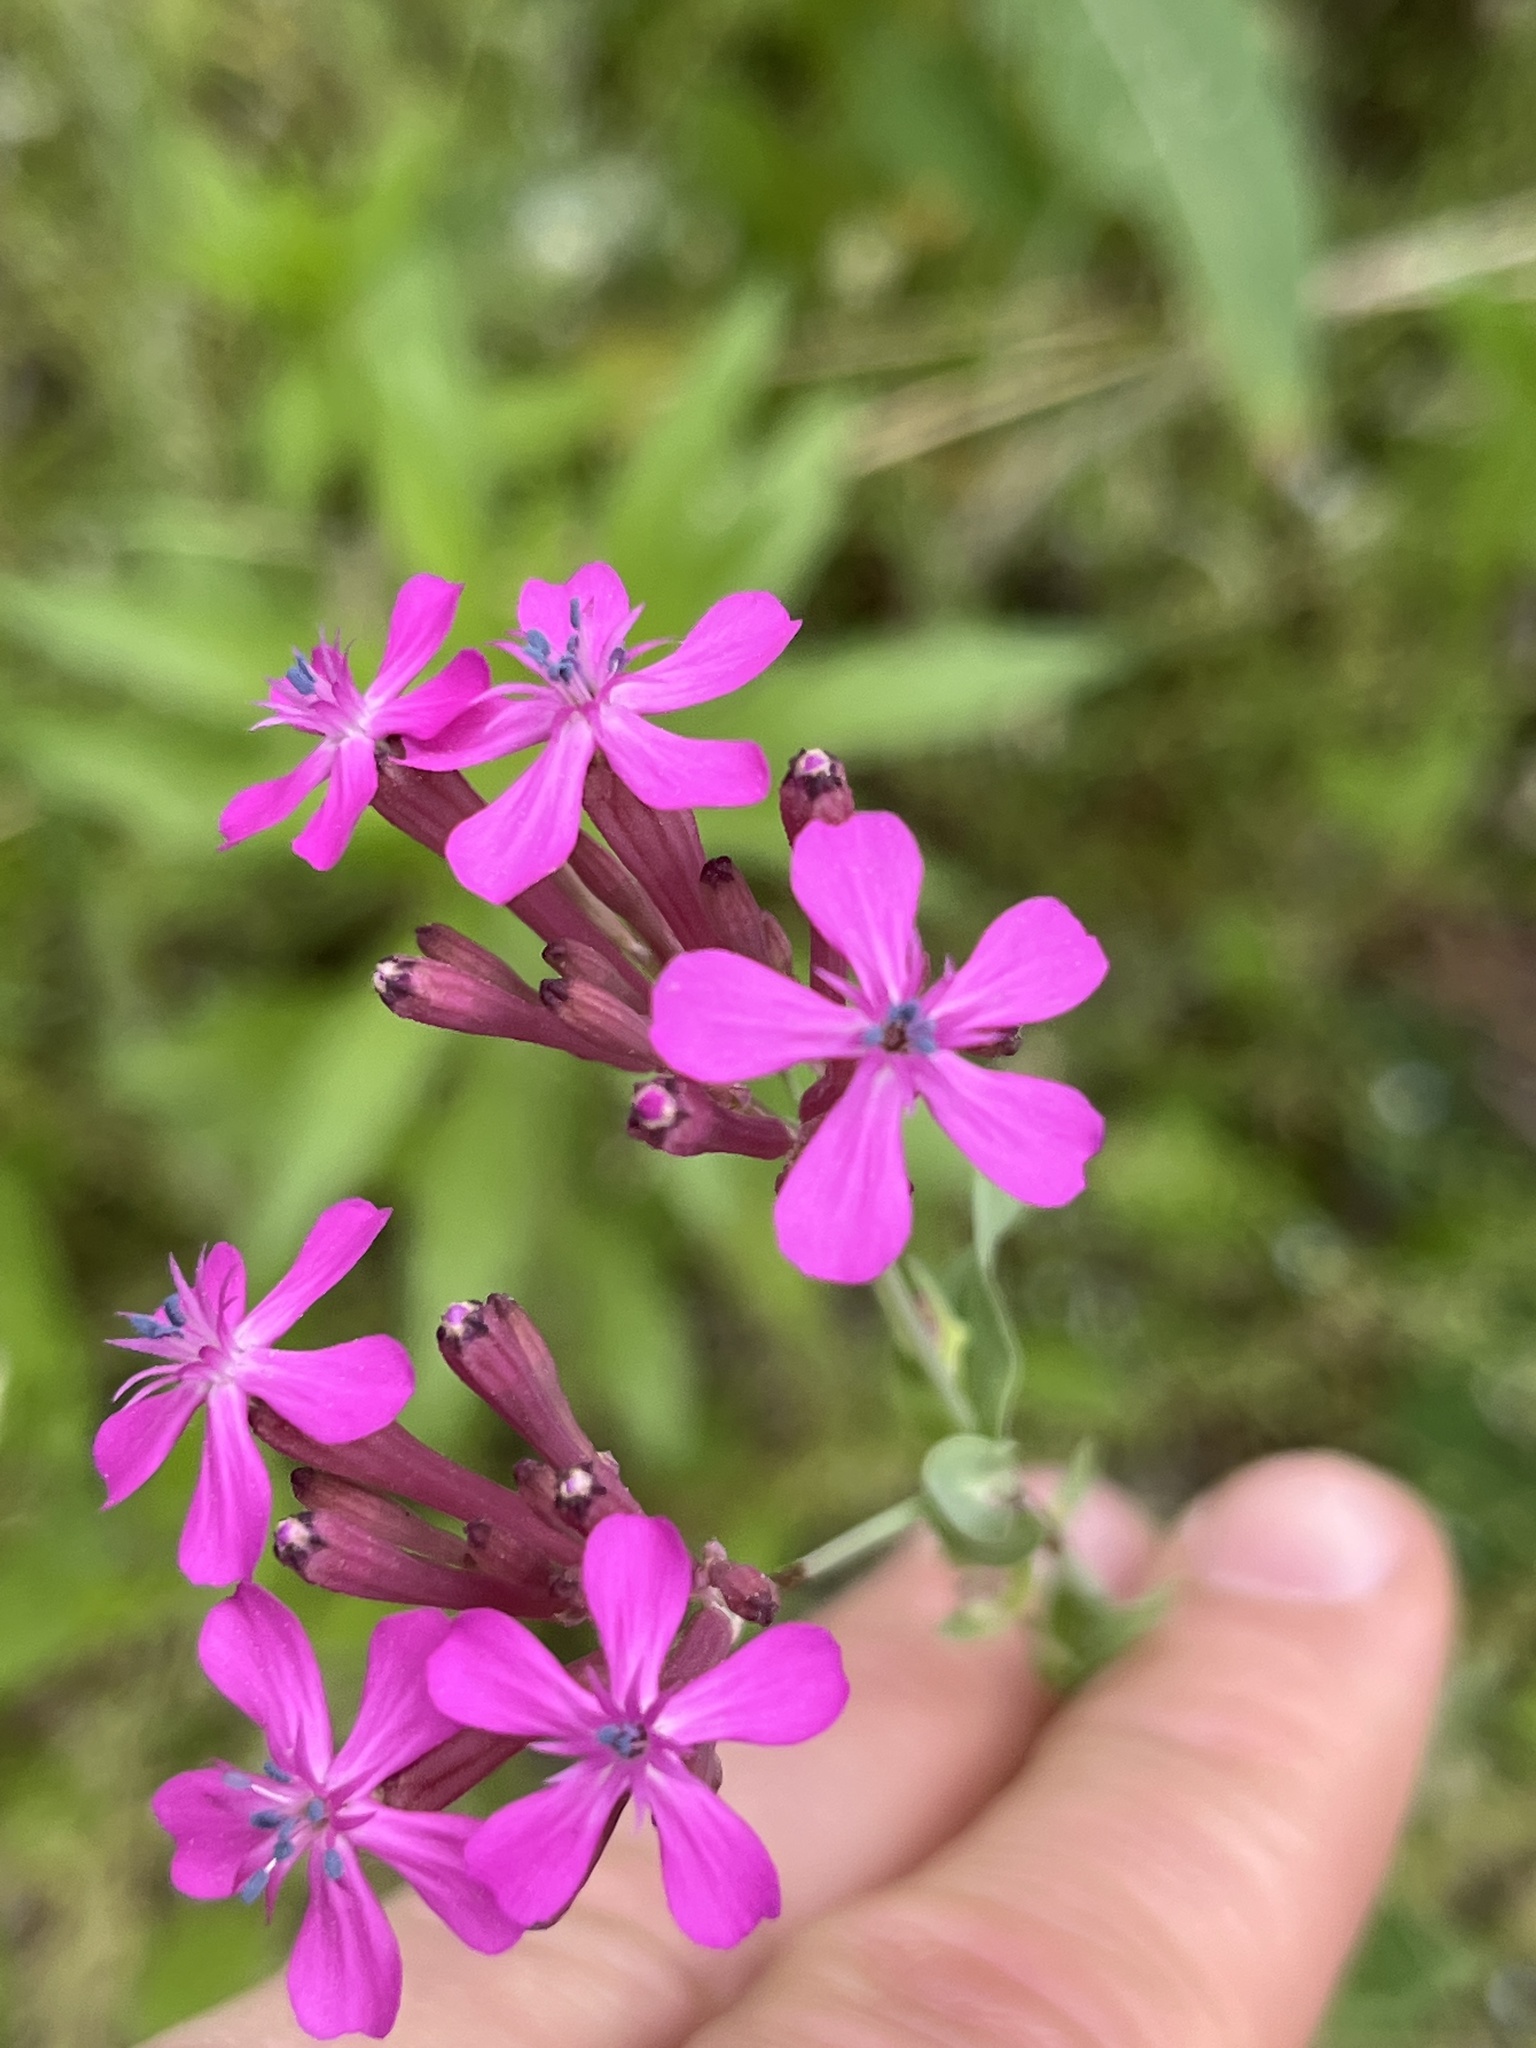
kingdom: Plantae
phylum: Tracheophyta
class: Magnoliopsida
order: Caryophyllales
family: Caryophyllaceae
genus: Atocion
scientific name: Atocion armeria
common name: Sweet william catchfly
